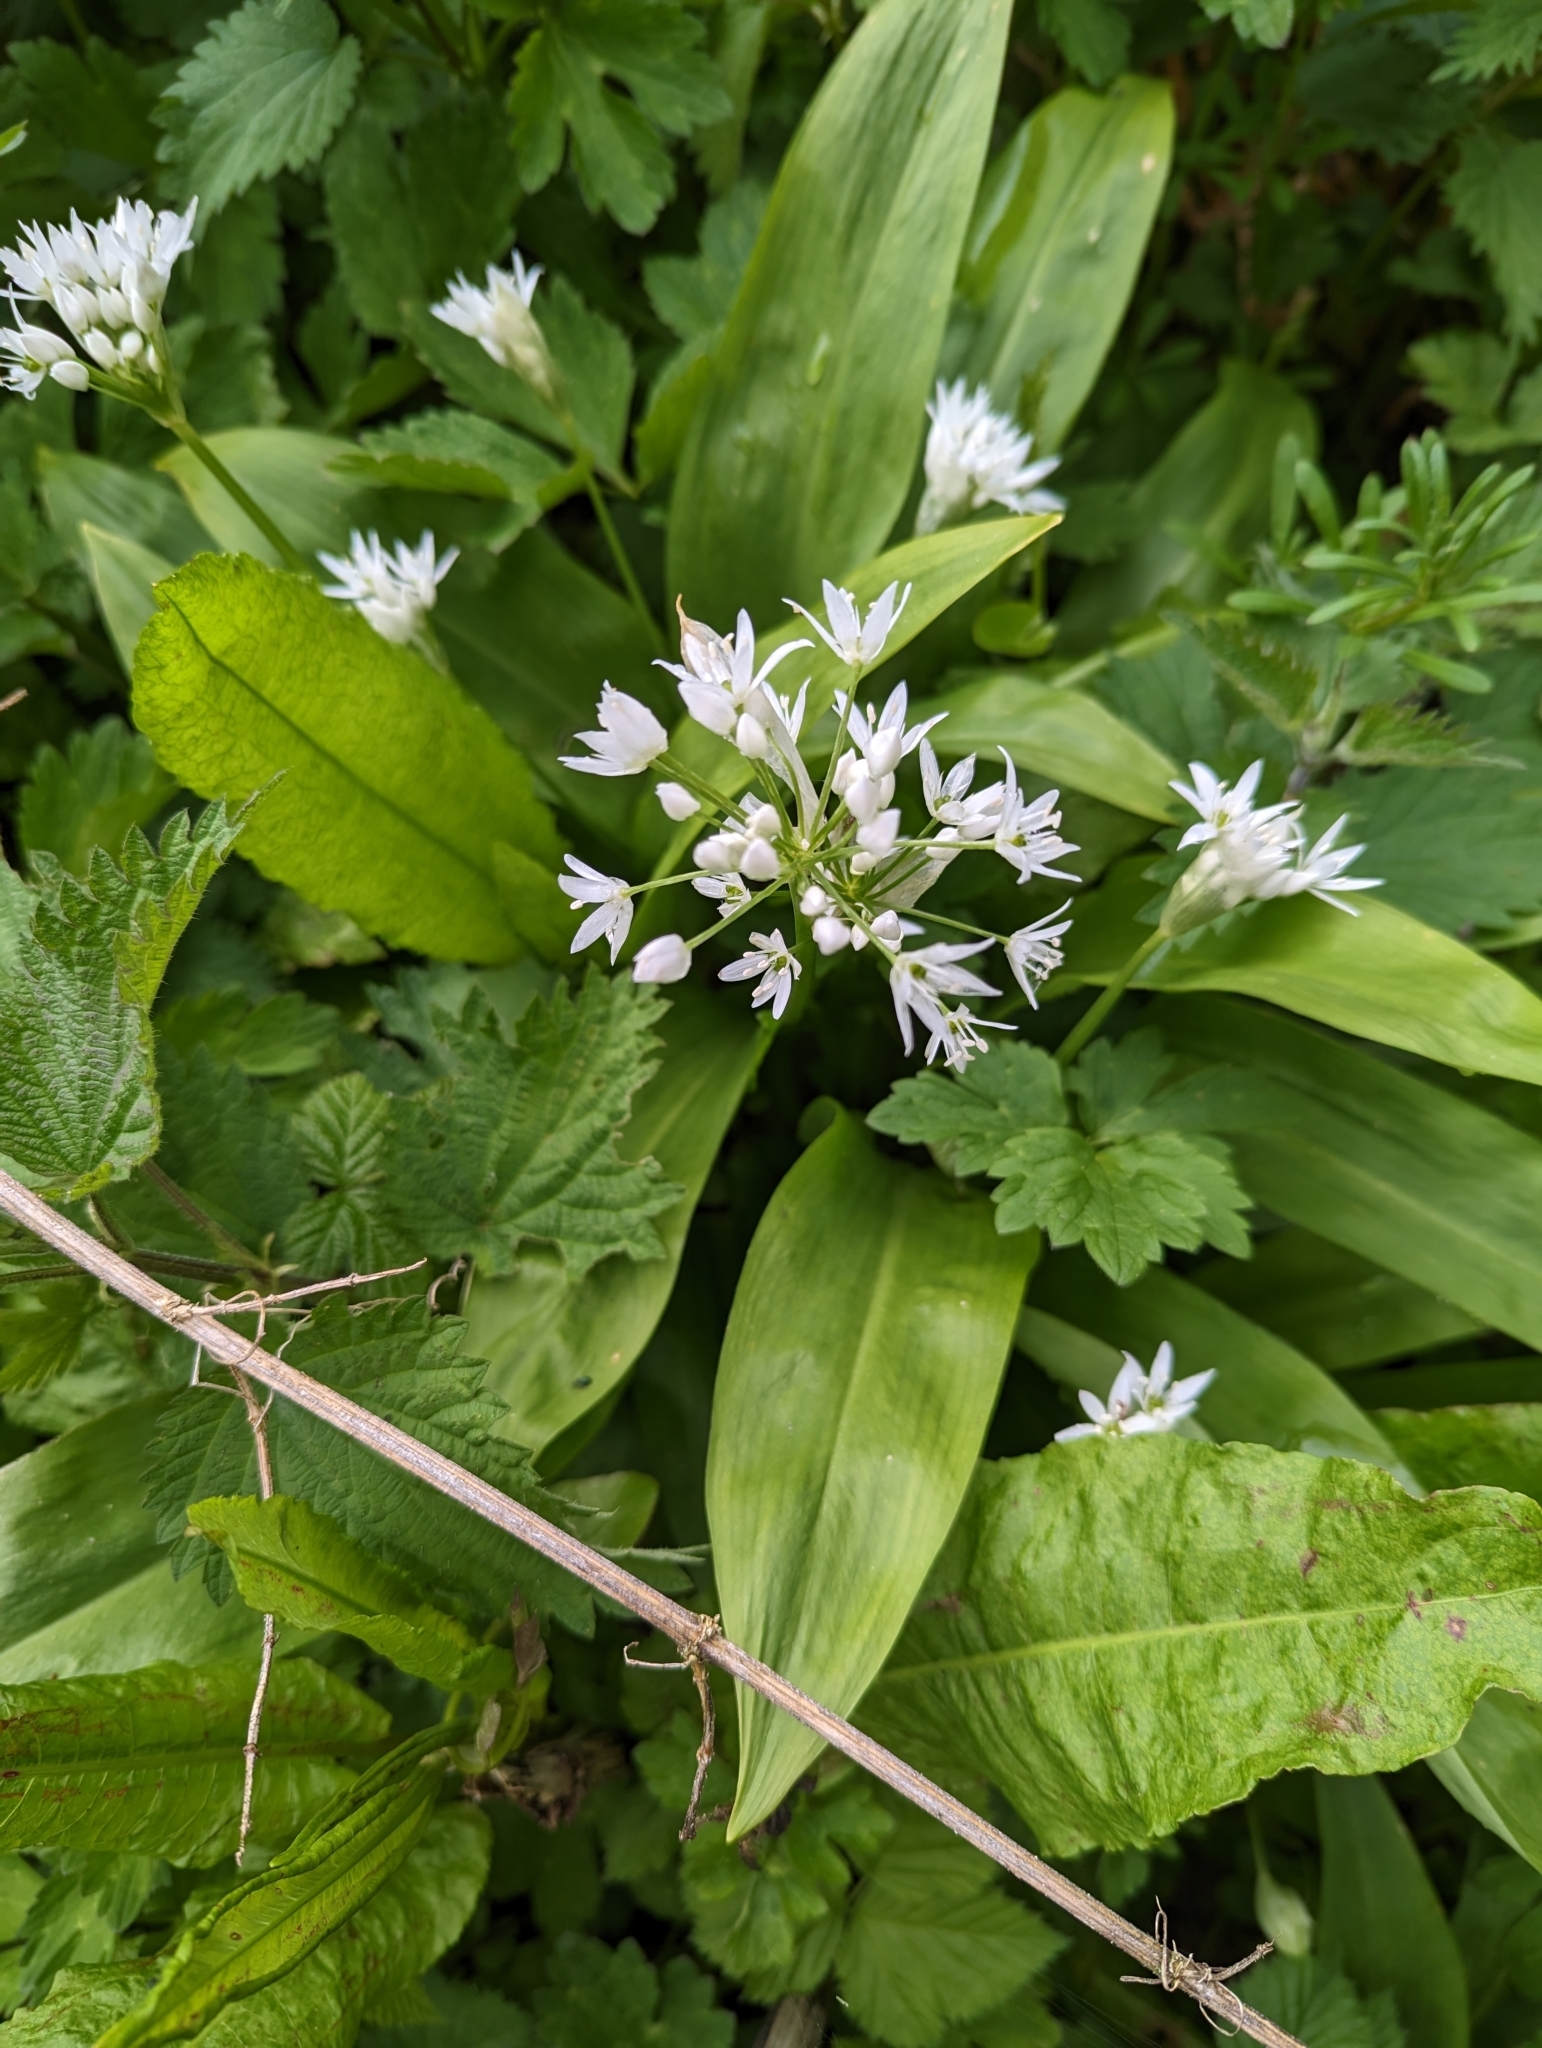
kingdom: Plantae
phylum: Tracheophyta
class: Liliopsida
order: Asparagales
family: Amaryllidaceae
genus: Allium
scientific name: Allium ursinum
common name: Ramsons
